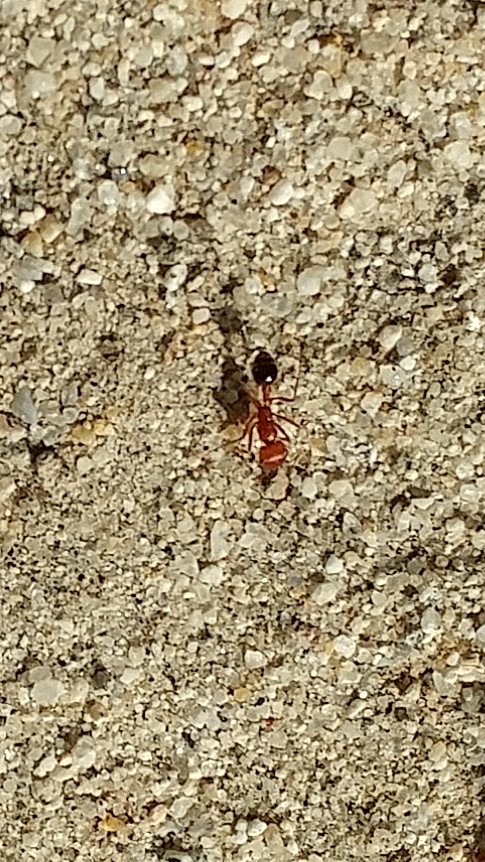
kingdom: Animalia
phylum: Arthropoda
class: Insecta
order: Hymenoptera
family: Formicidae
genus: Pogonomyrmex
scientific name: Pogonomyrmex californicus
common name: California harvester ant
